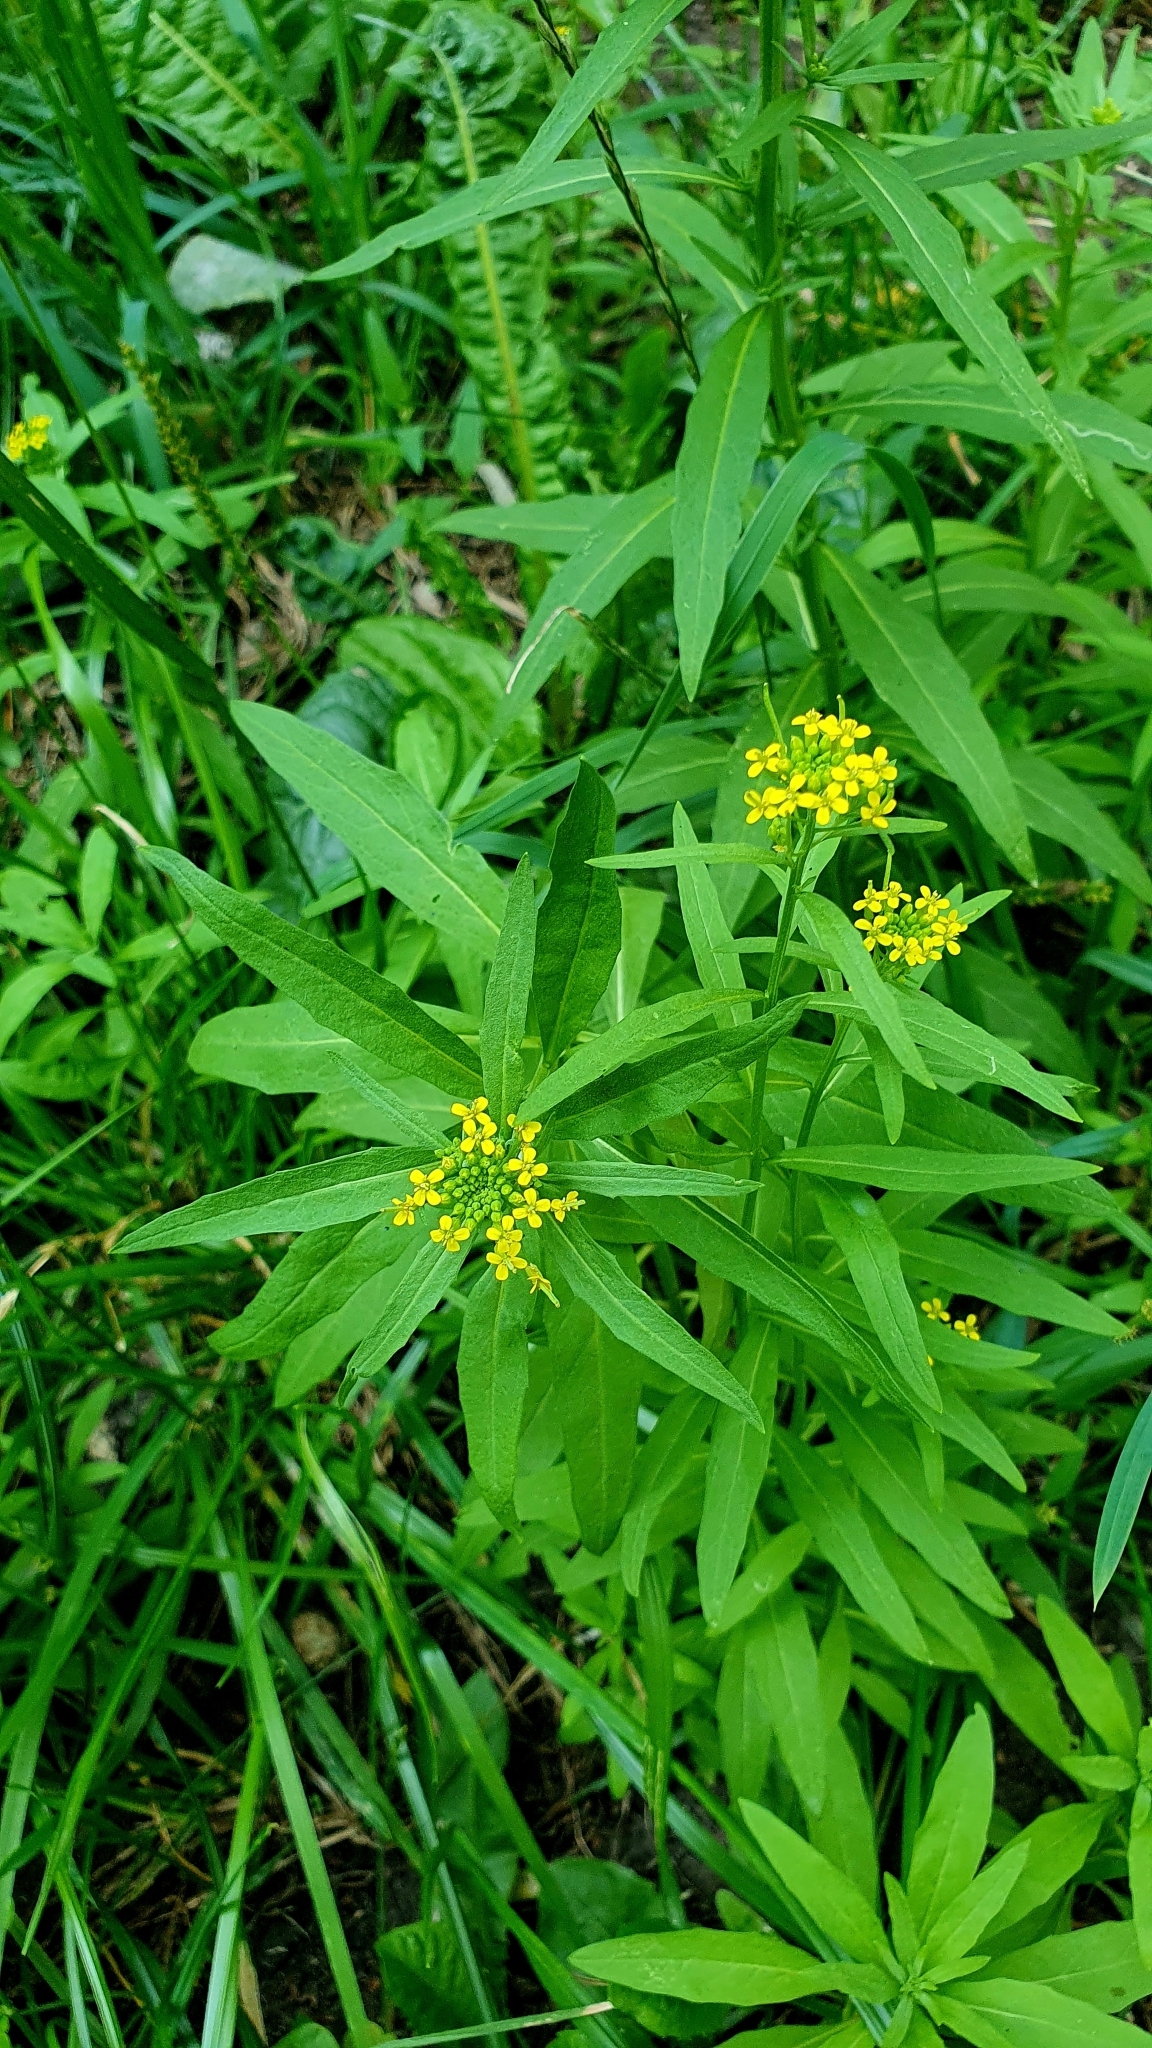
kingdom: Plantae
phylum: Tracheophyta
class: Magnoliopsida
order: Brassicales
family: Brassicaceae
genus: Erysimum
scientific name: Erysimum cheiranthoides
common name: Treacle mustard
